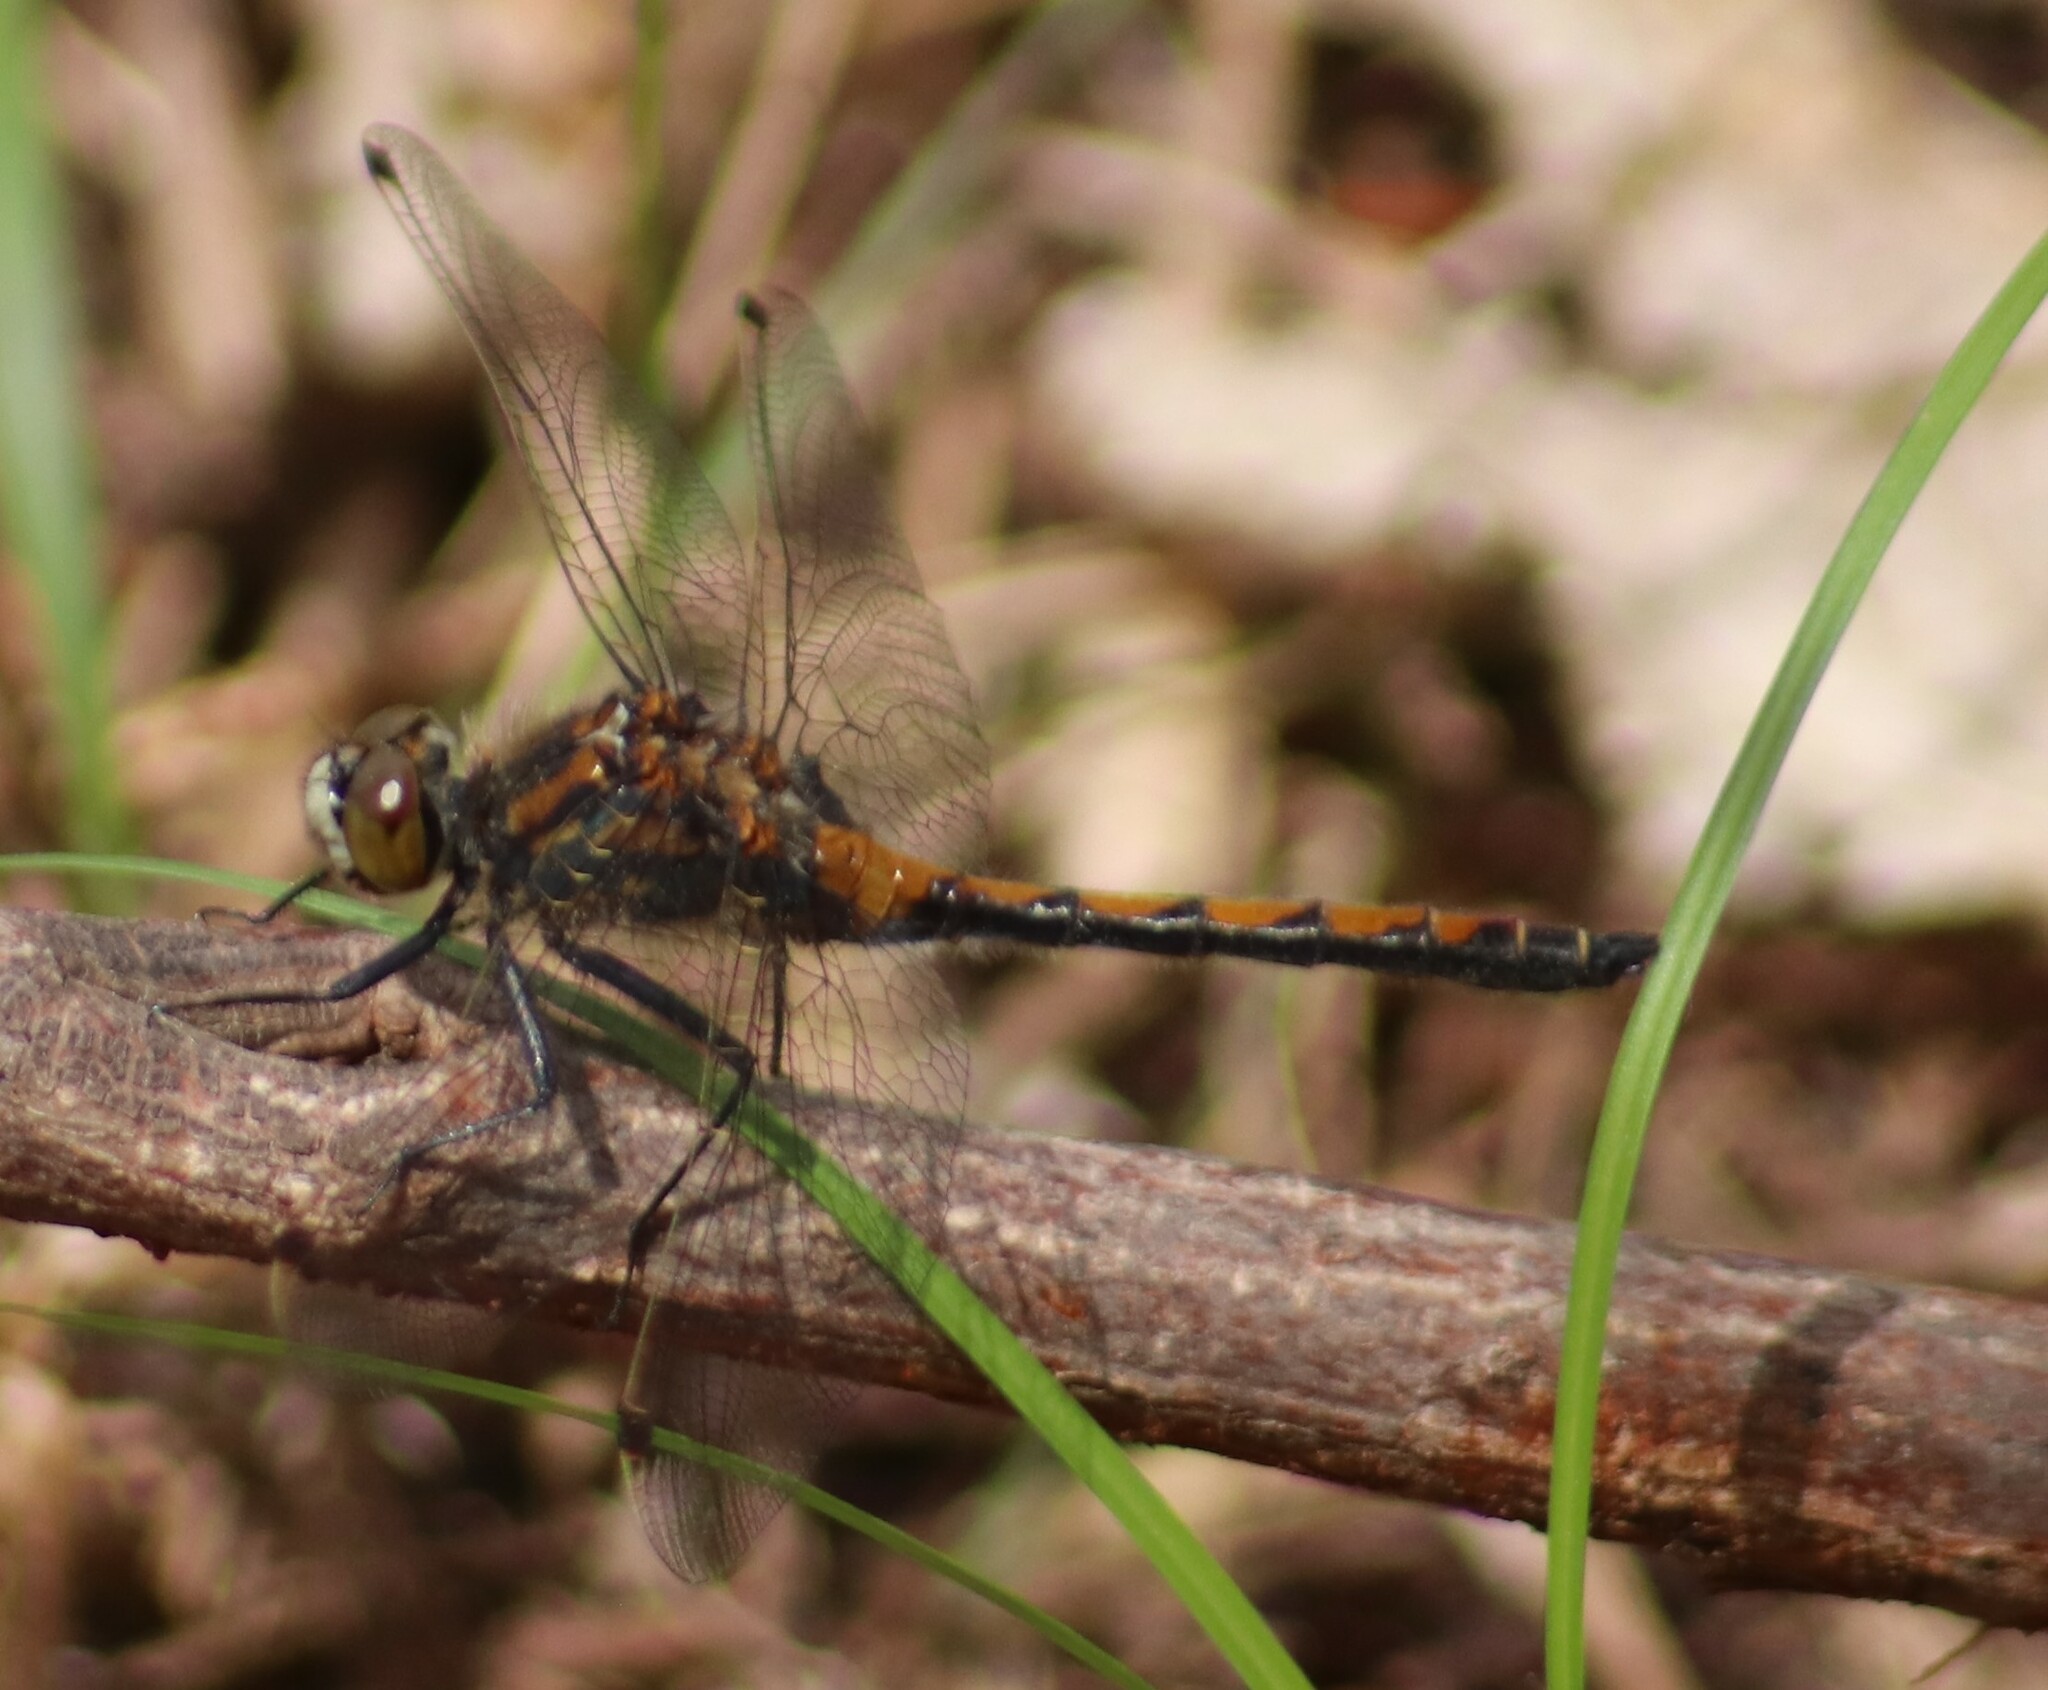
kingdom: Animalia
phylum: Arthropoda
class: Insecta
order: Odonata
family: Libellulidae
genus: Leucorrhinia
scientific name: Leucorrhinia borealis
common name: Boreal whiteface
